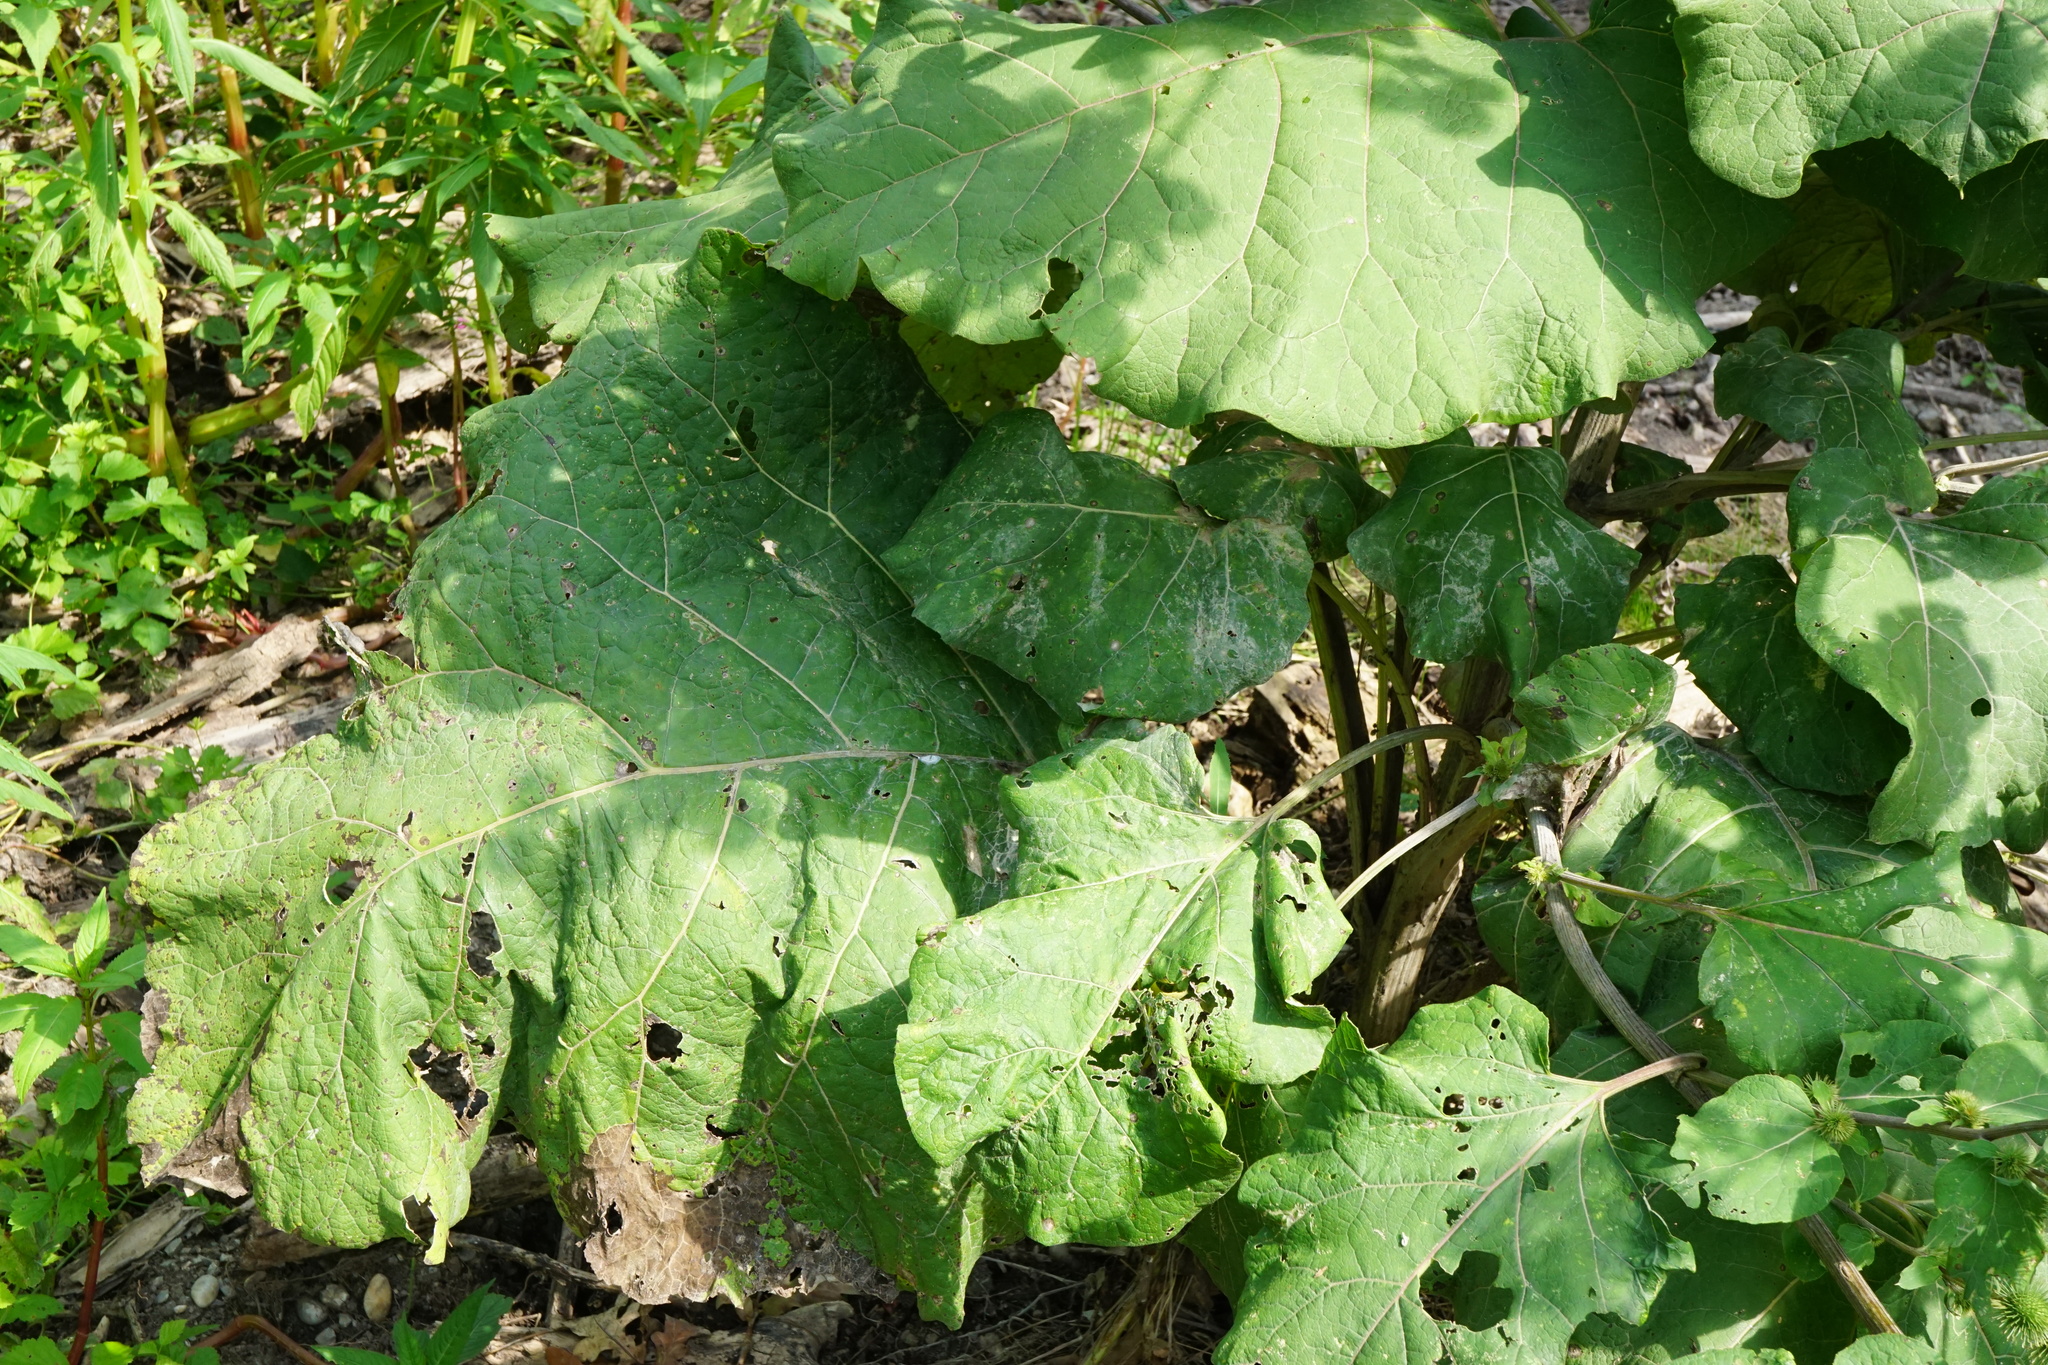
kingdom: Plantae
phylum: Tracheophyta
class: Magnoliopsida
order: Asterales
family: Asteraceae
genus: Arctium
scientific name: Arctium lappa
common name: Greater burdock
